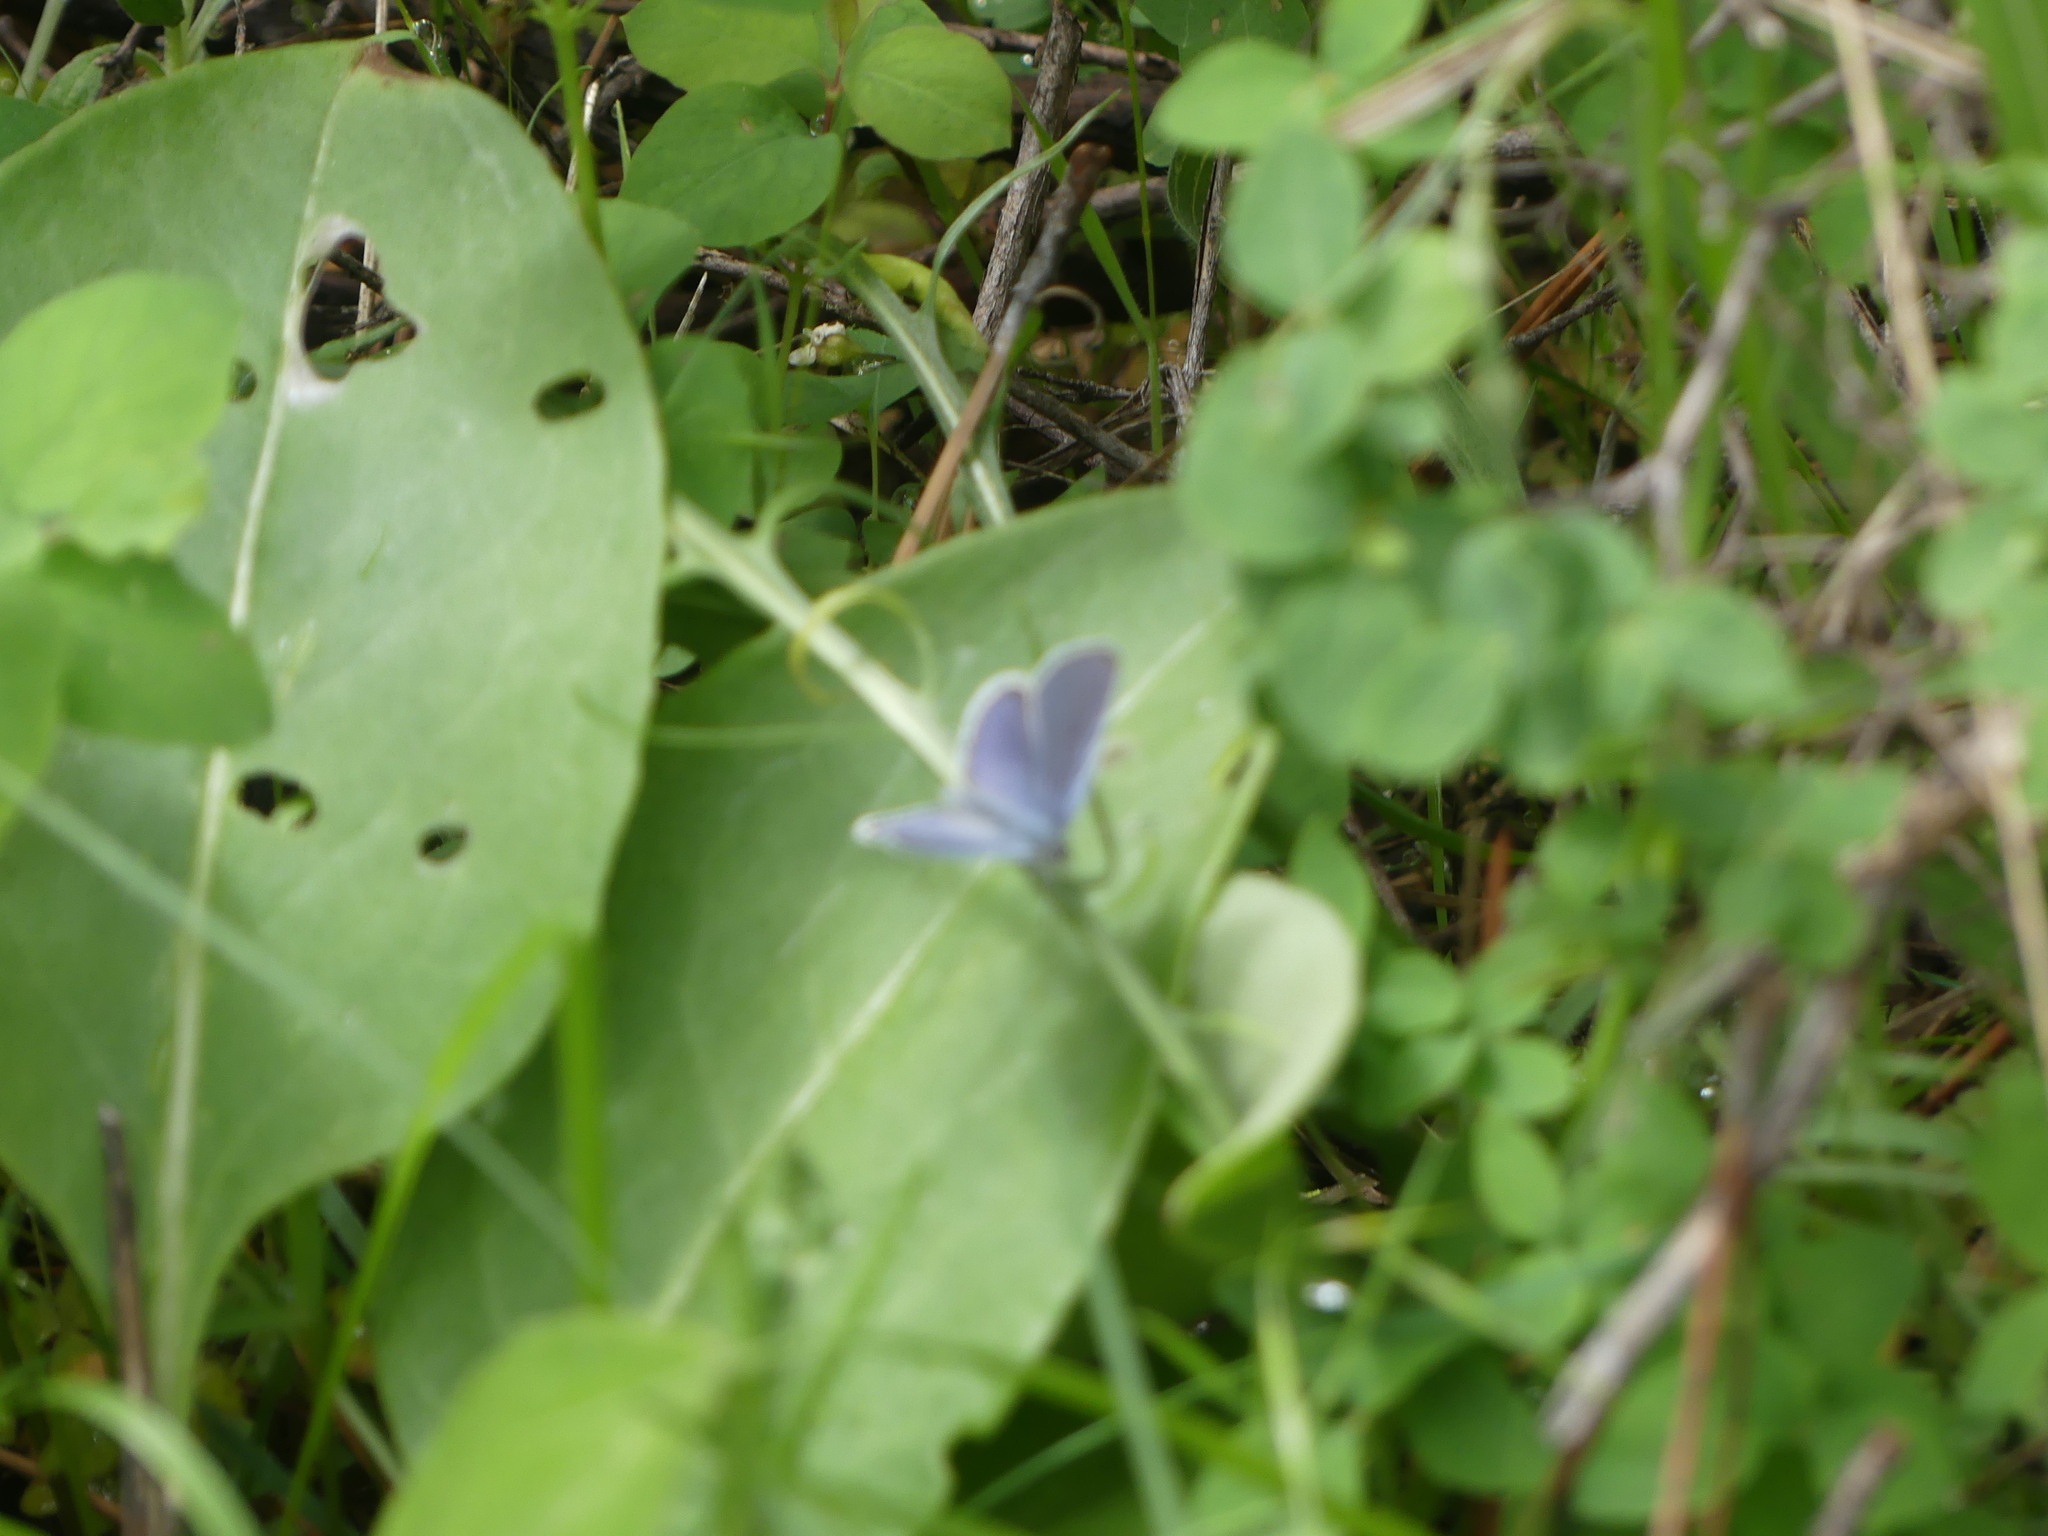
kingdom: Animalia
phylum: Arthropoda
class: Insecta
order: Lepidoptera
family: Lycaenidae
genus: Elkalyce
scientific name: Elkalyce amyntula
